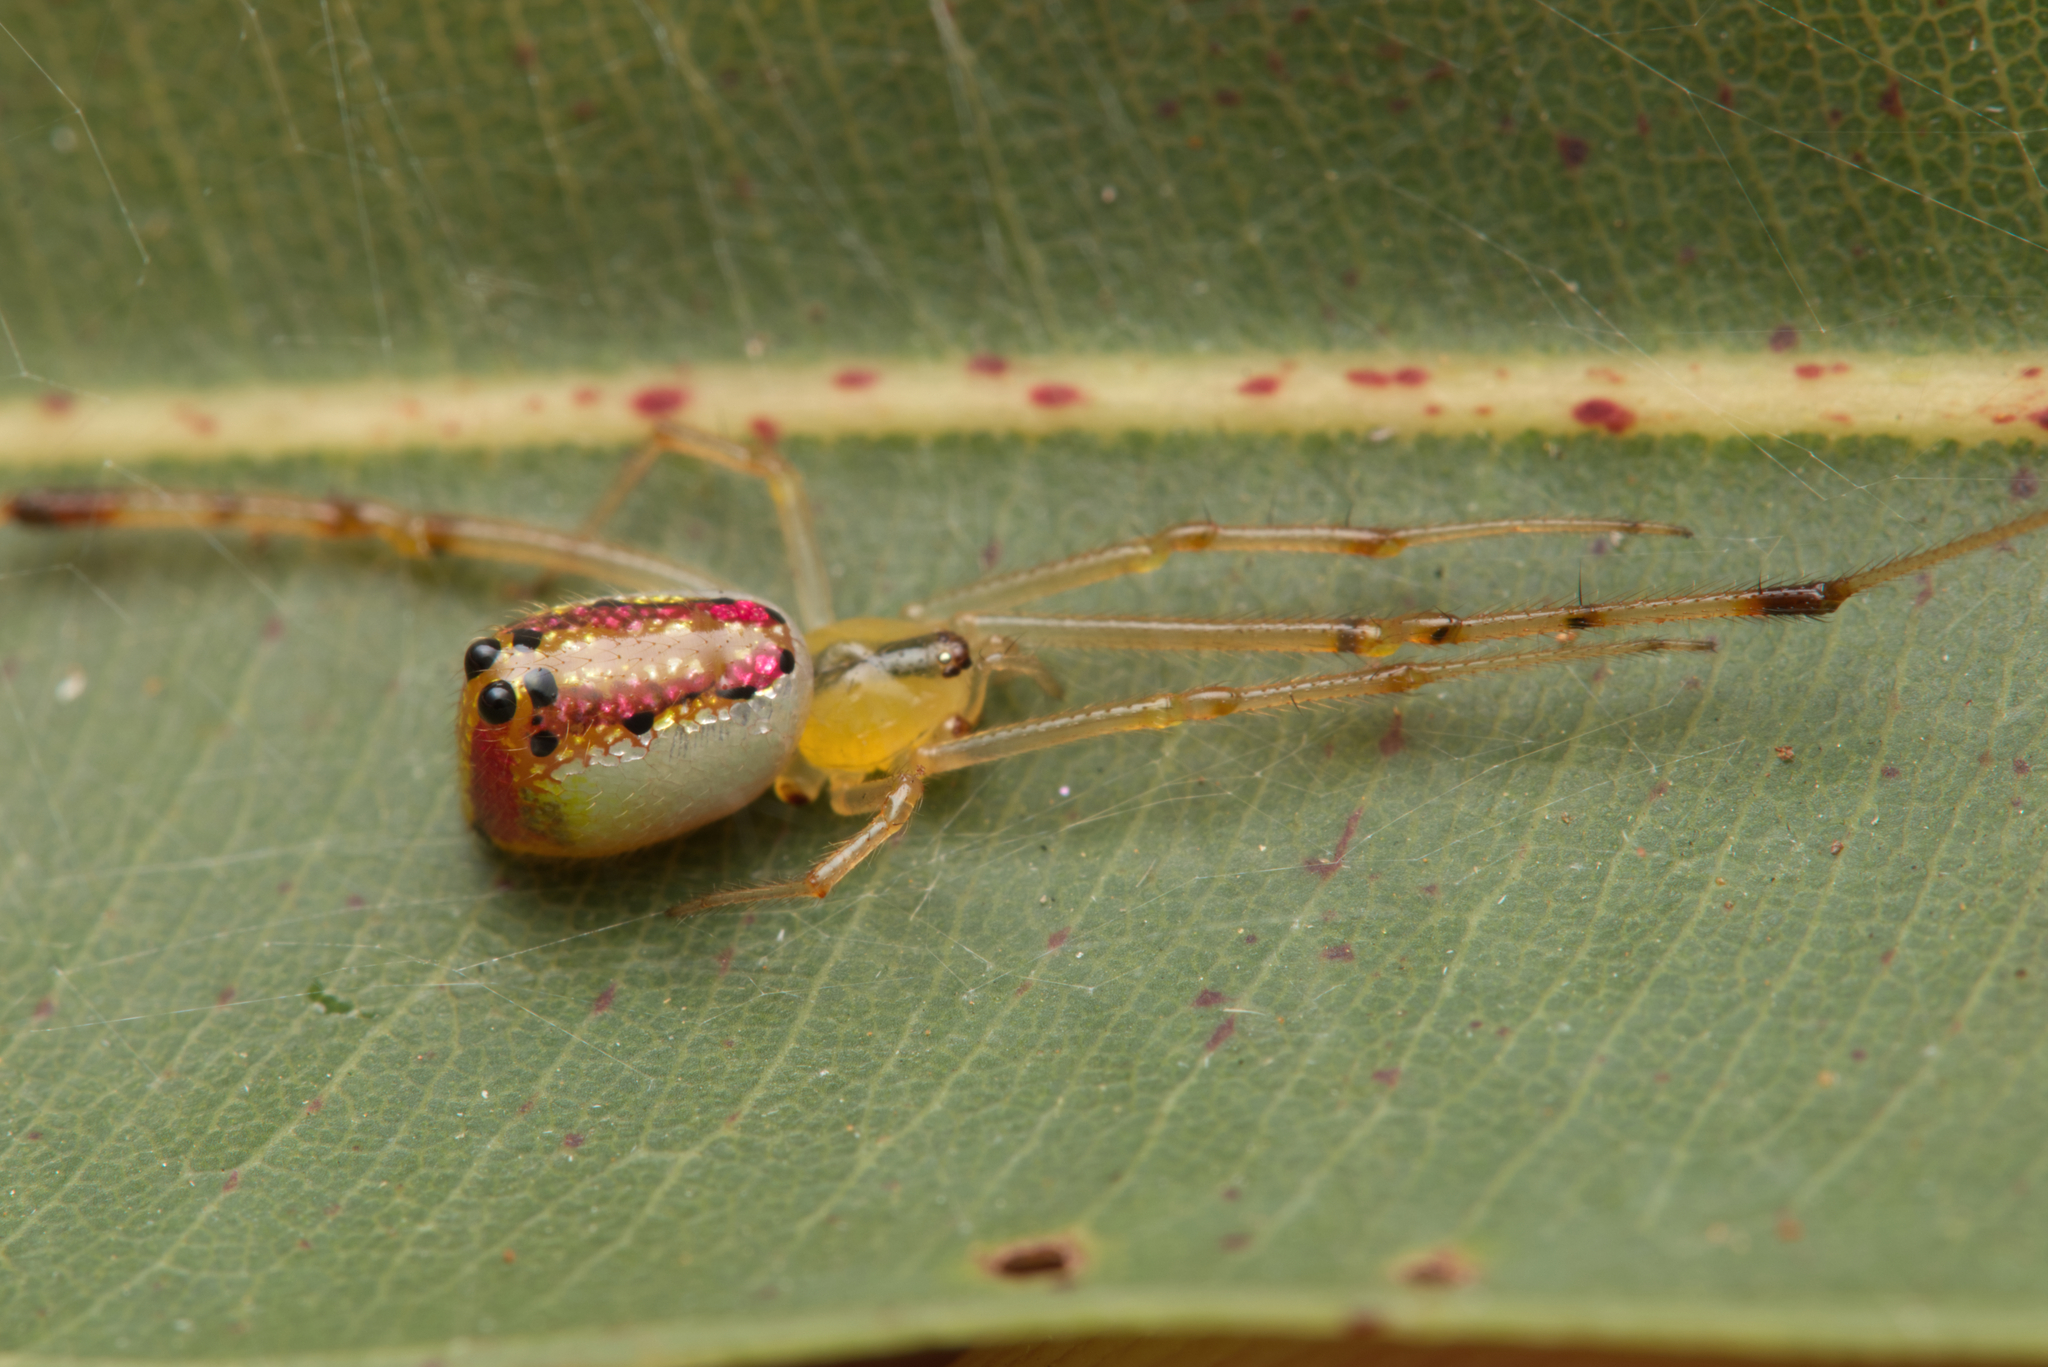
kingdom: Animalia
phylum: Arthropoda
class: Arachnida
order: Araneae
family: Theridiidae
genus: Thwaitesia
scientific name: Thwaitesia nigronodosa
